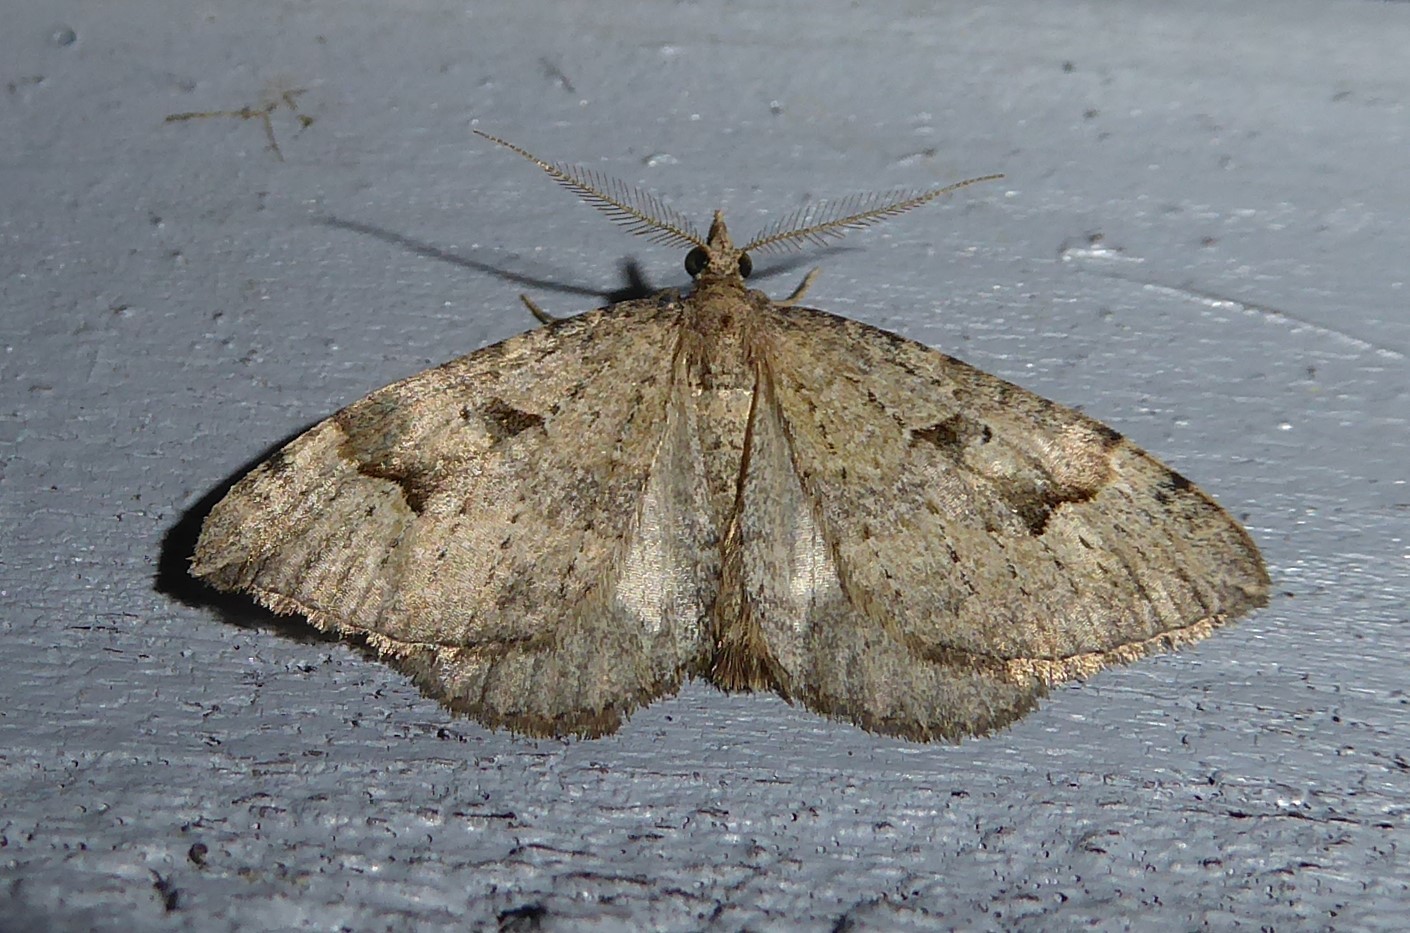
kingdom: Animalia
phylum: Arthropoda
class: Insecta
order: Lepidoptera
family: Geometridae
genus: Epyaxa
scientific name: Epyaxa rosearia
